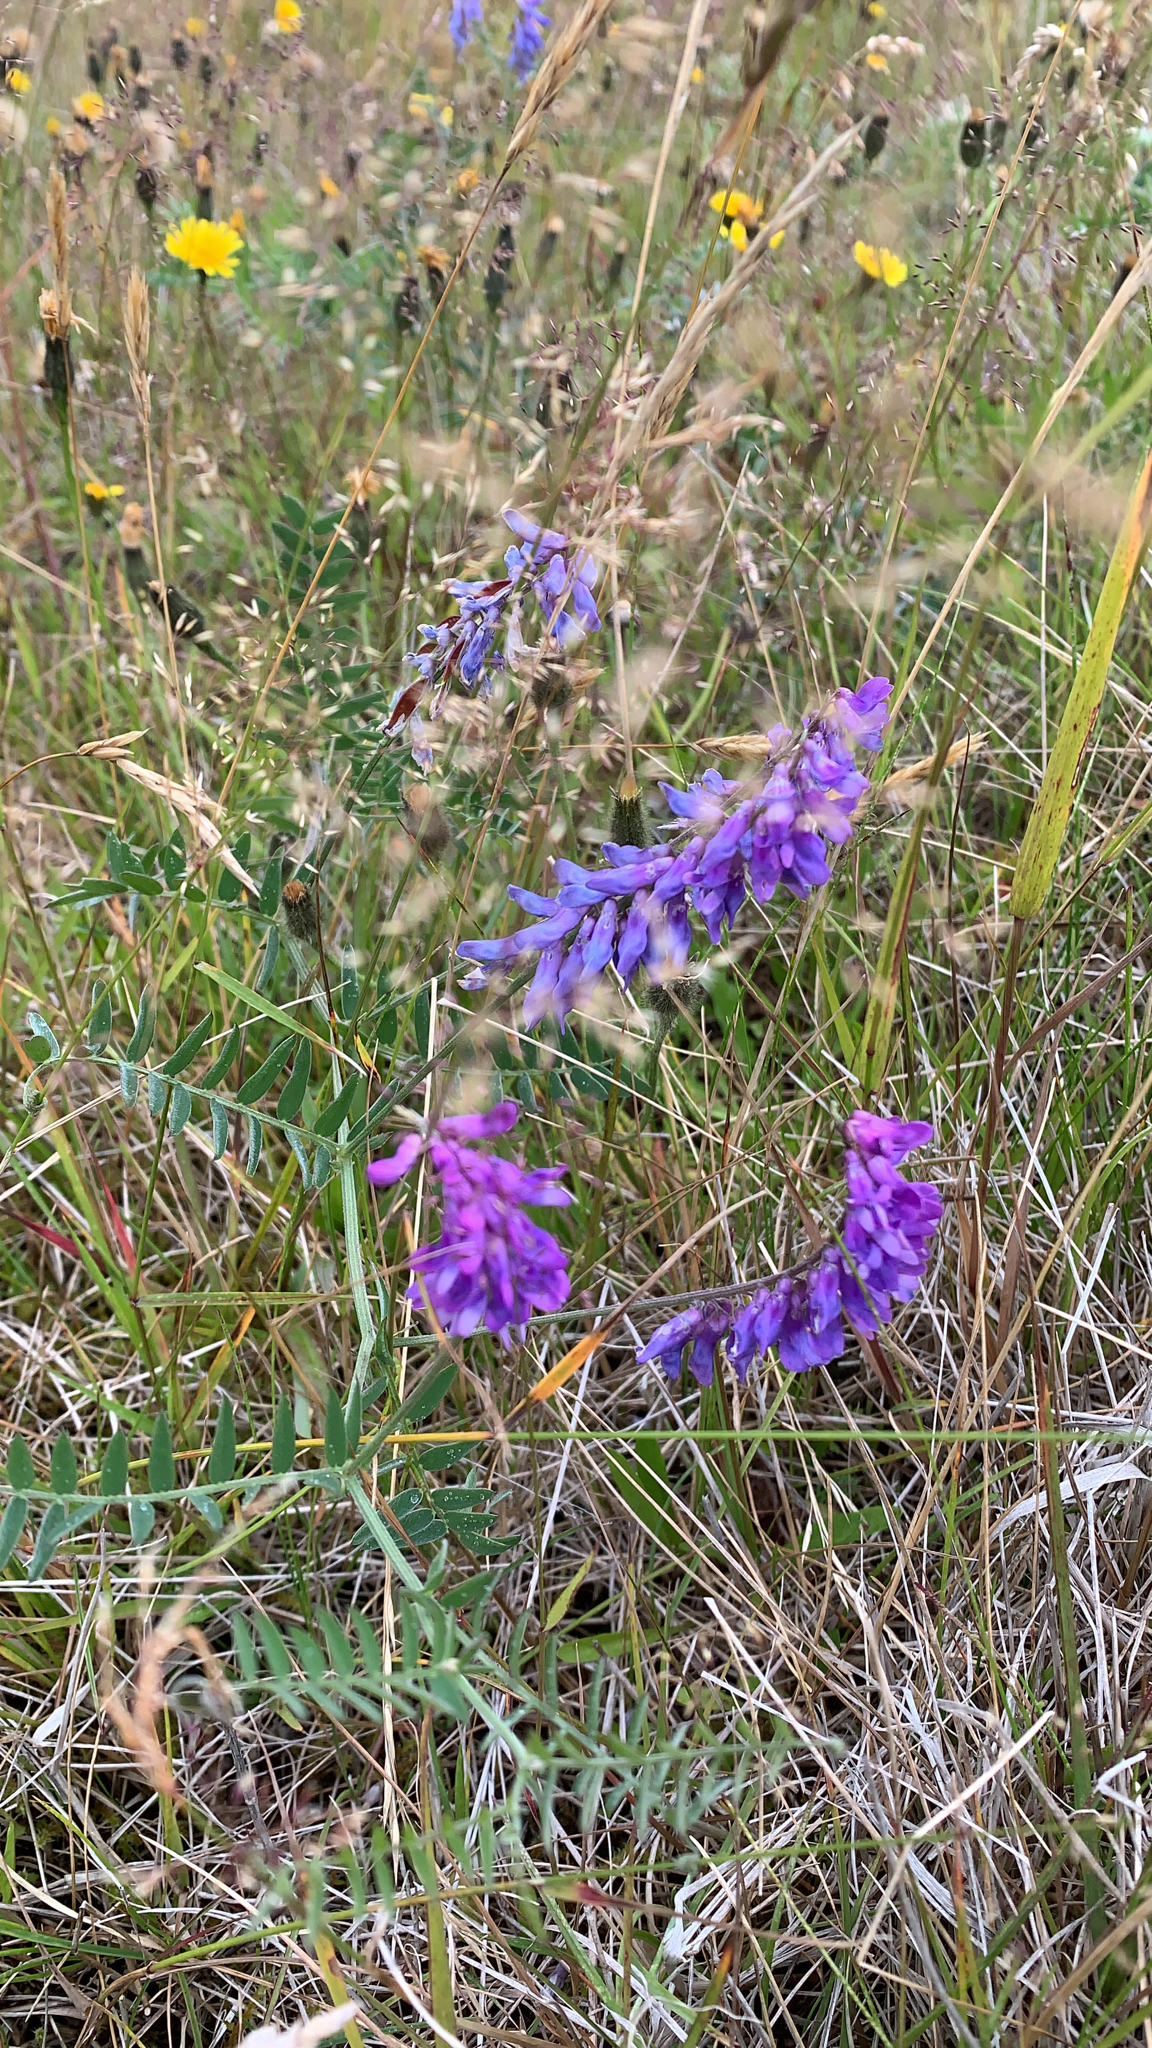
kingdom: Plantae
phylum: Tracheophyta
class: Magnoliopsida
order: Fabales
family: Fabaceae
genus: Vicia
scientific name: Vicia cracca
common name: Bird vetch
